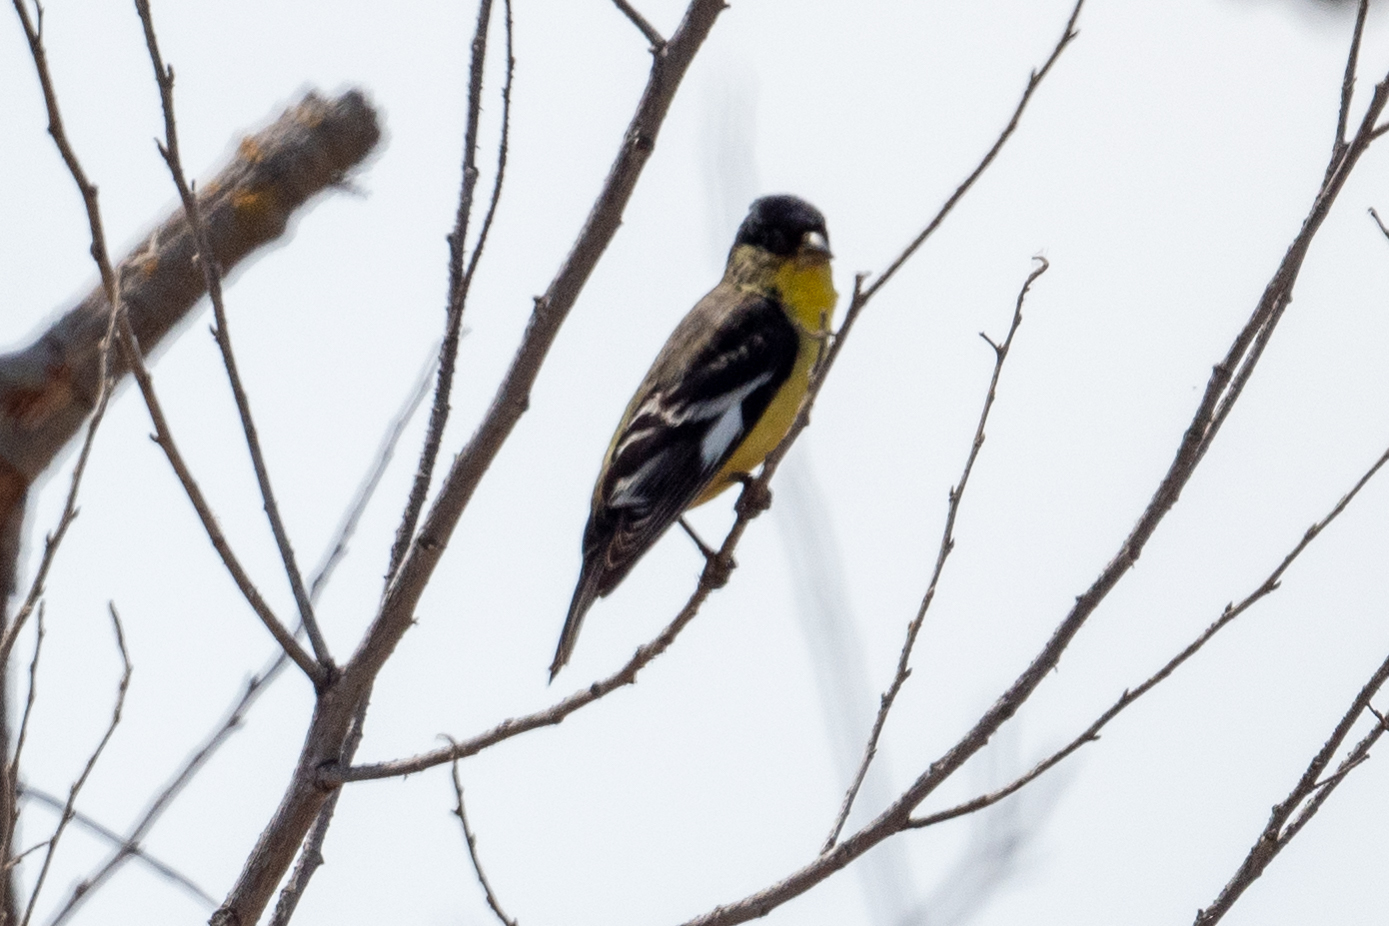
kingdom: Animalia
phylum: Chordata
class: Aves
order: Passeriformes
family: Fringillidae
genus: Spinus
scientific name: Spinus psaltria
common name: Lesser goldfinch
